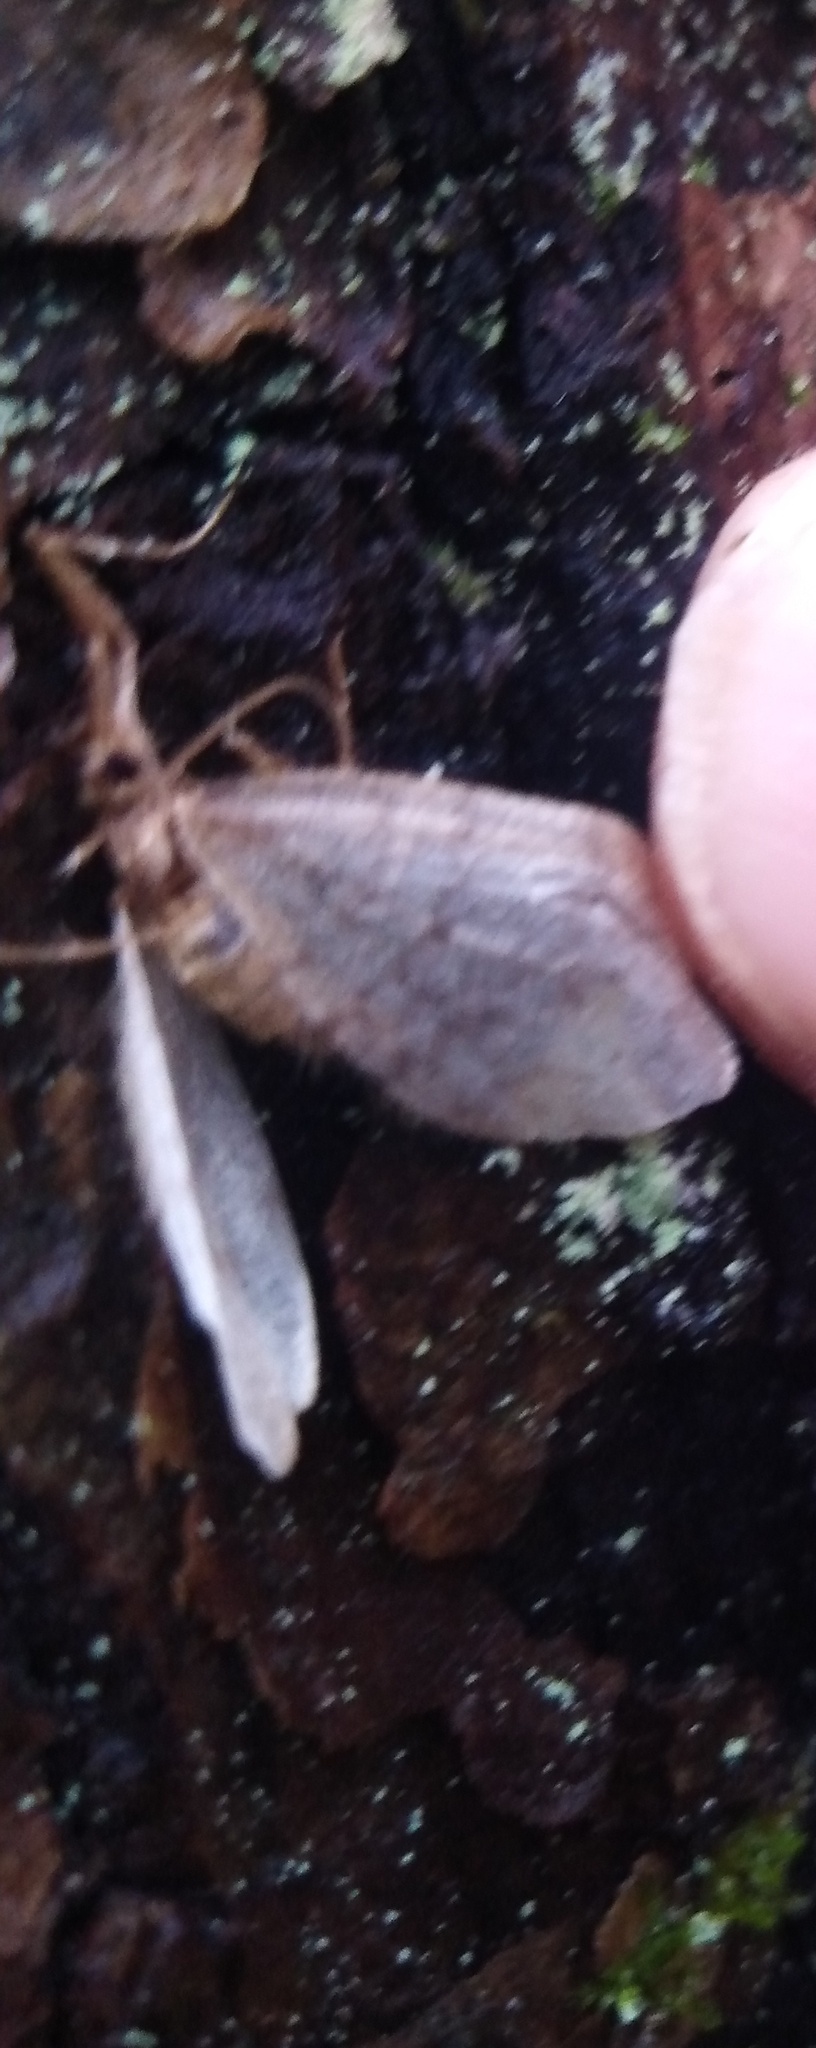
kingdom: Animalia
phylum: Arthropoda
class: Insecta
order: Lepidoptera
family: Geometridae
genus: Operophtera
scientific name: Operophtera brumata
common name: Winter moth
